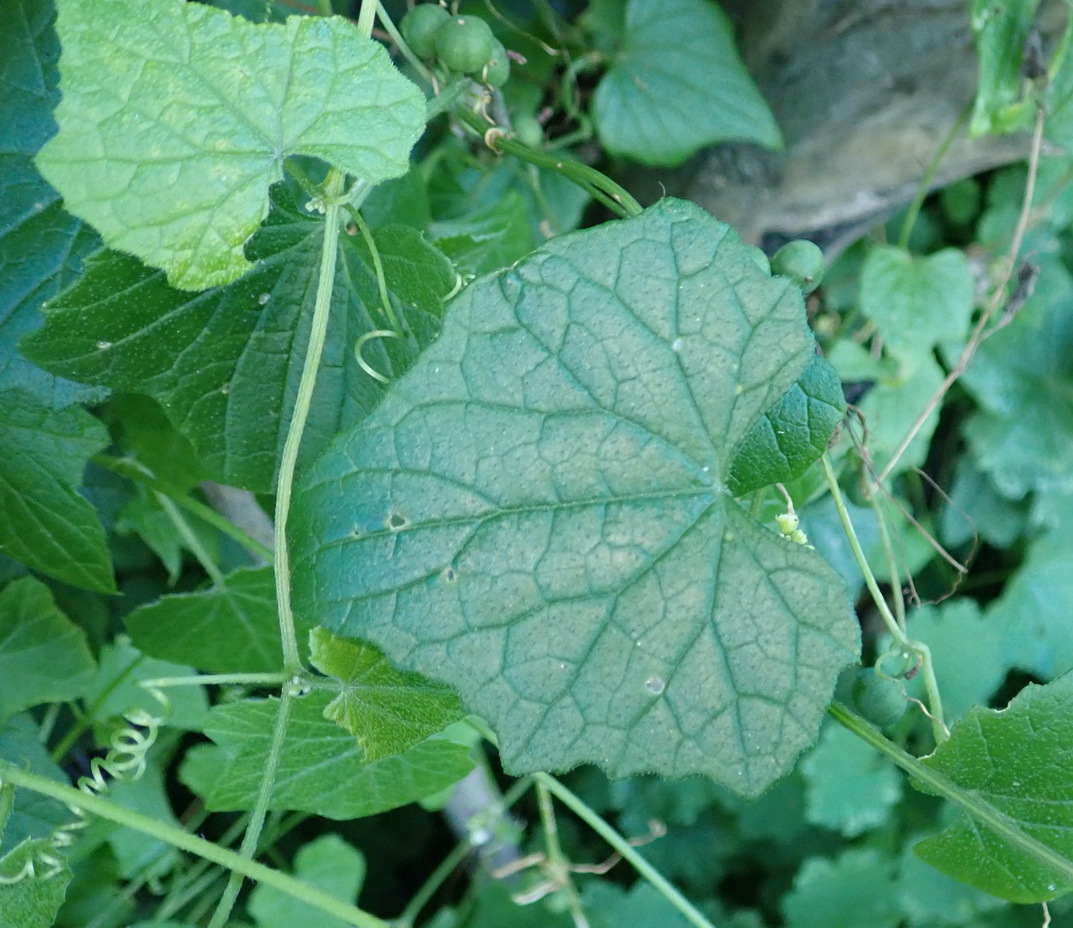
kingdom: Plantae
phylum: Tracheophyta
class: Magnoliopsida
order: Cucurbitales
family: Cucurbitaceae
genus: Zehneria
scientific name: Zehneria scabra
